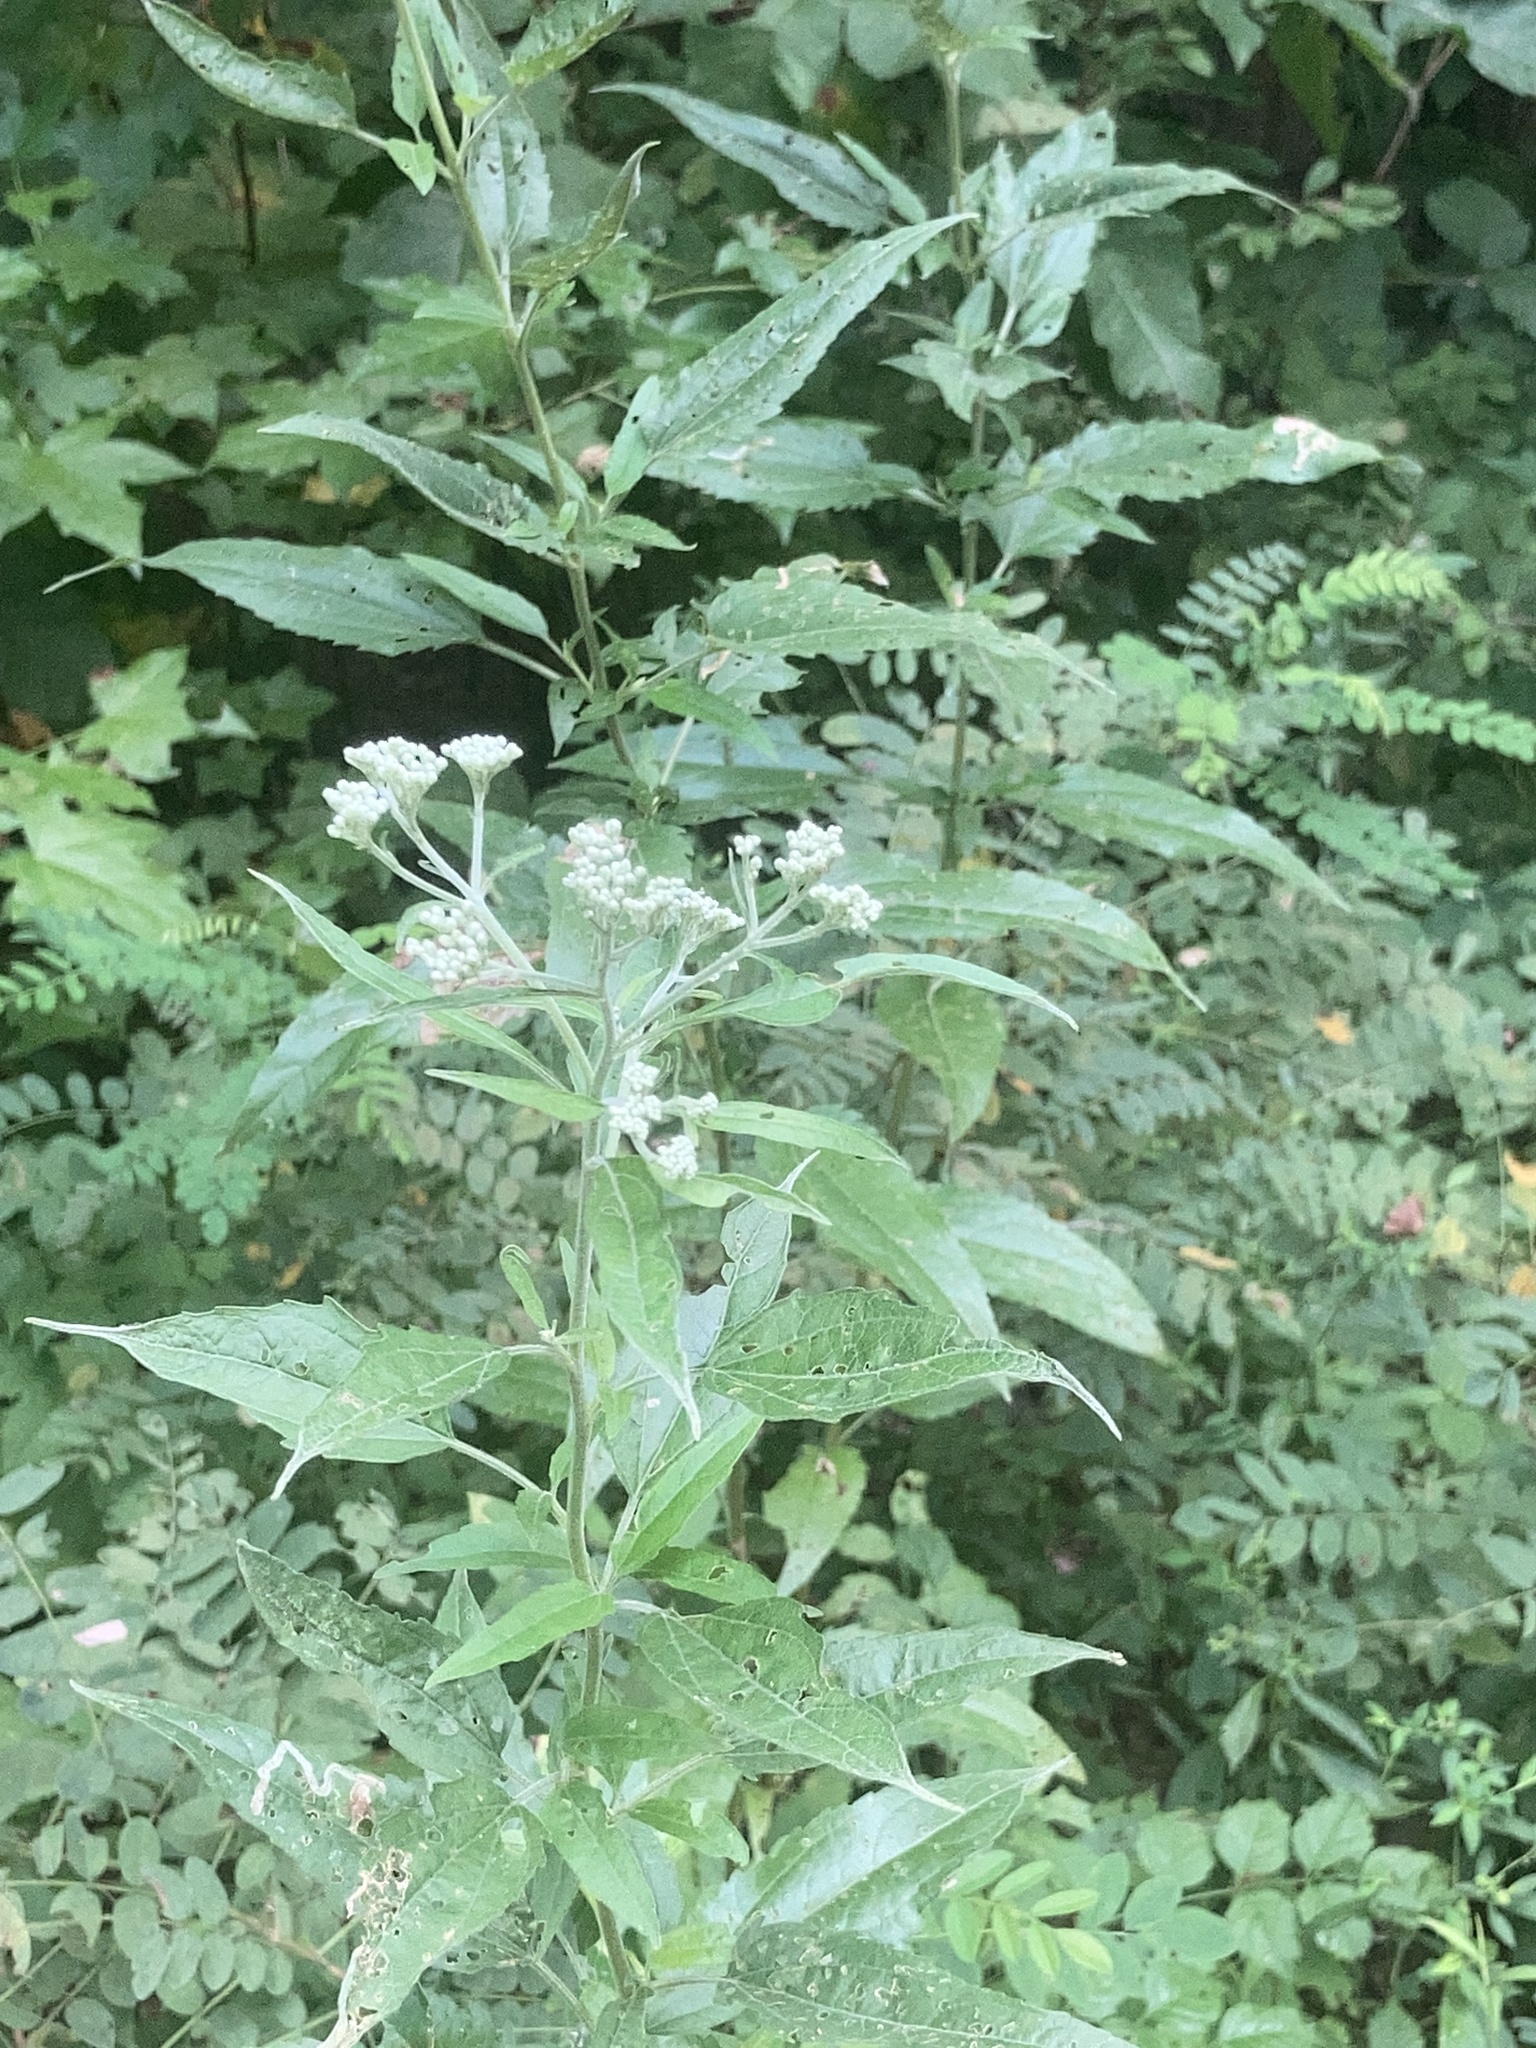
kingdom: Plantae
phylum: Tracheophyta
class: Magnoliopsida
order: Asterales
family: Asteraceae
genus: Eupatorium
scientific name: Eupatorium serotinum
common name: Late boneset
